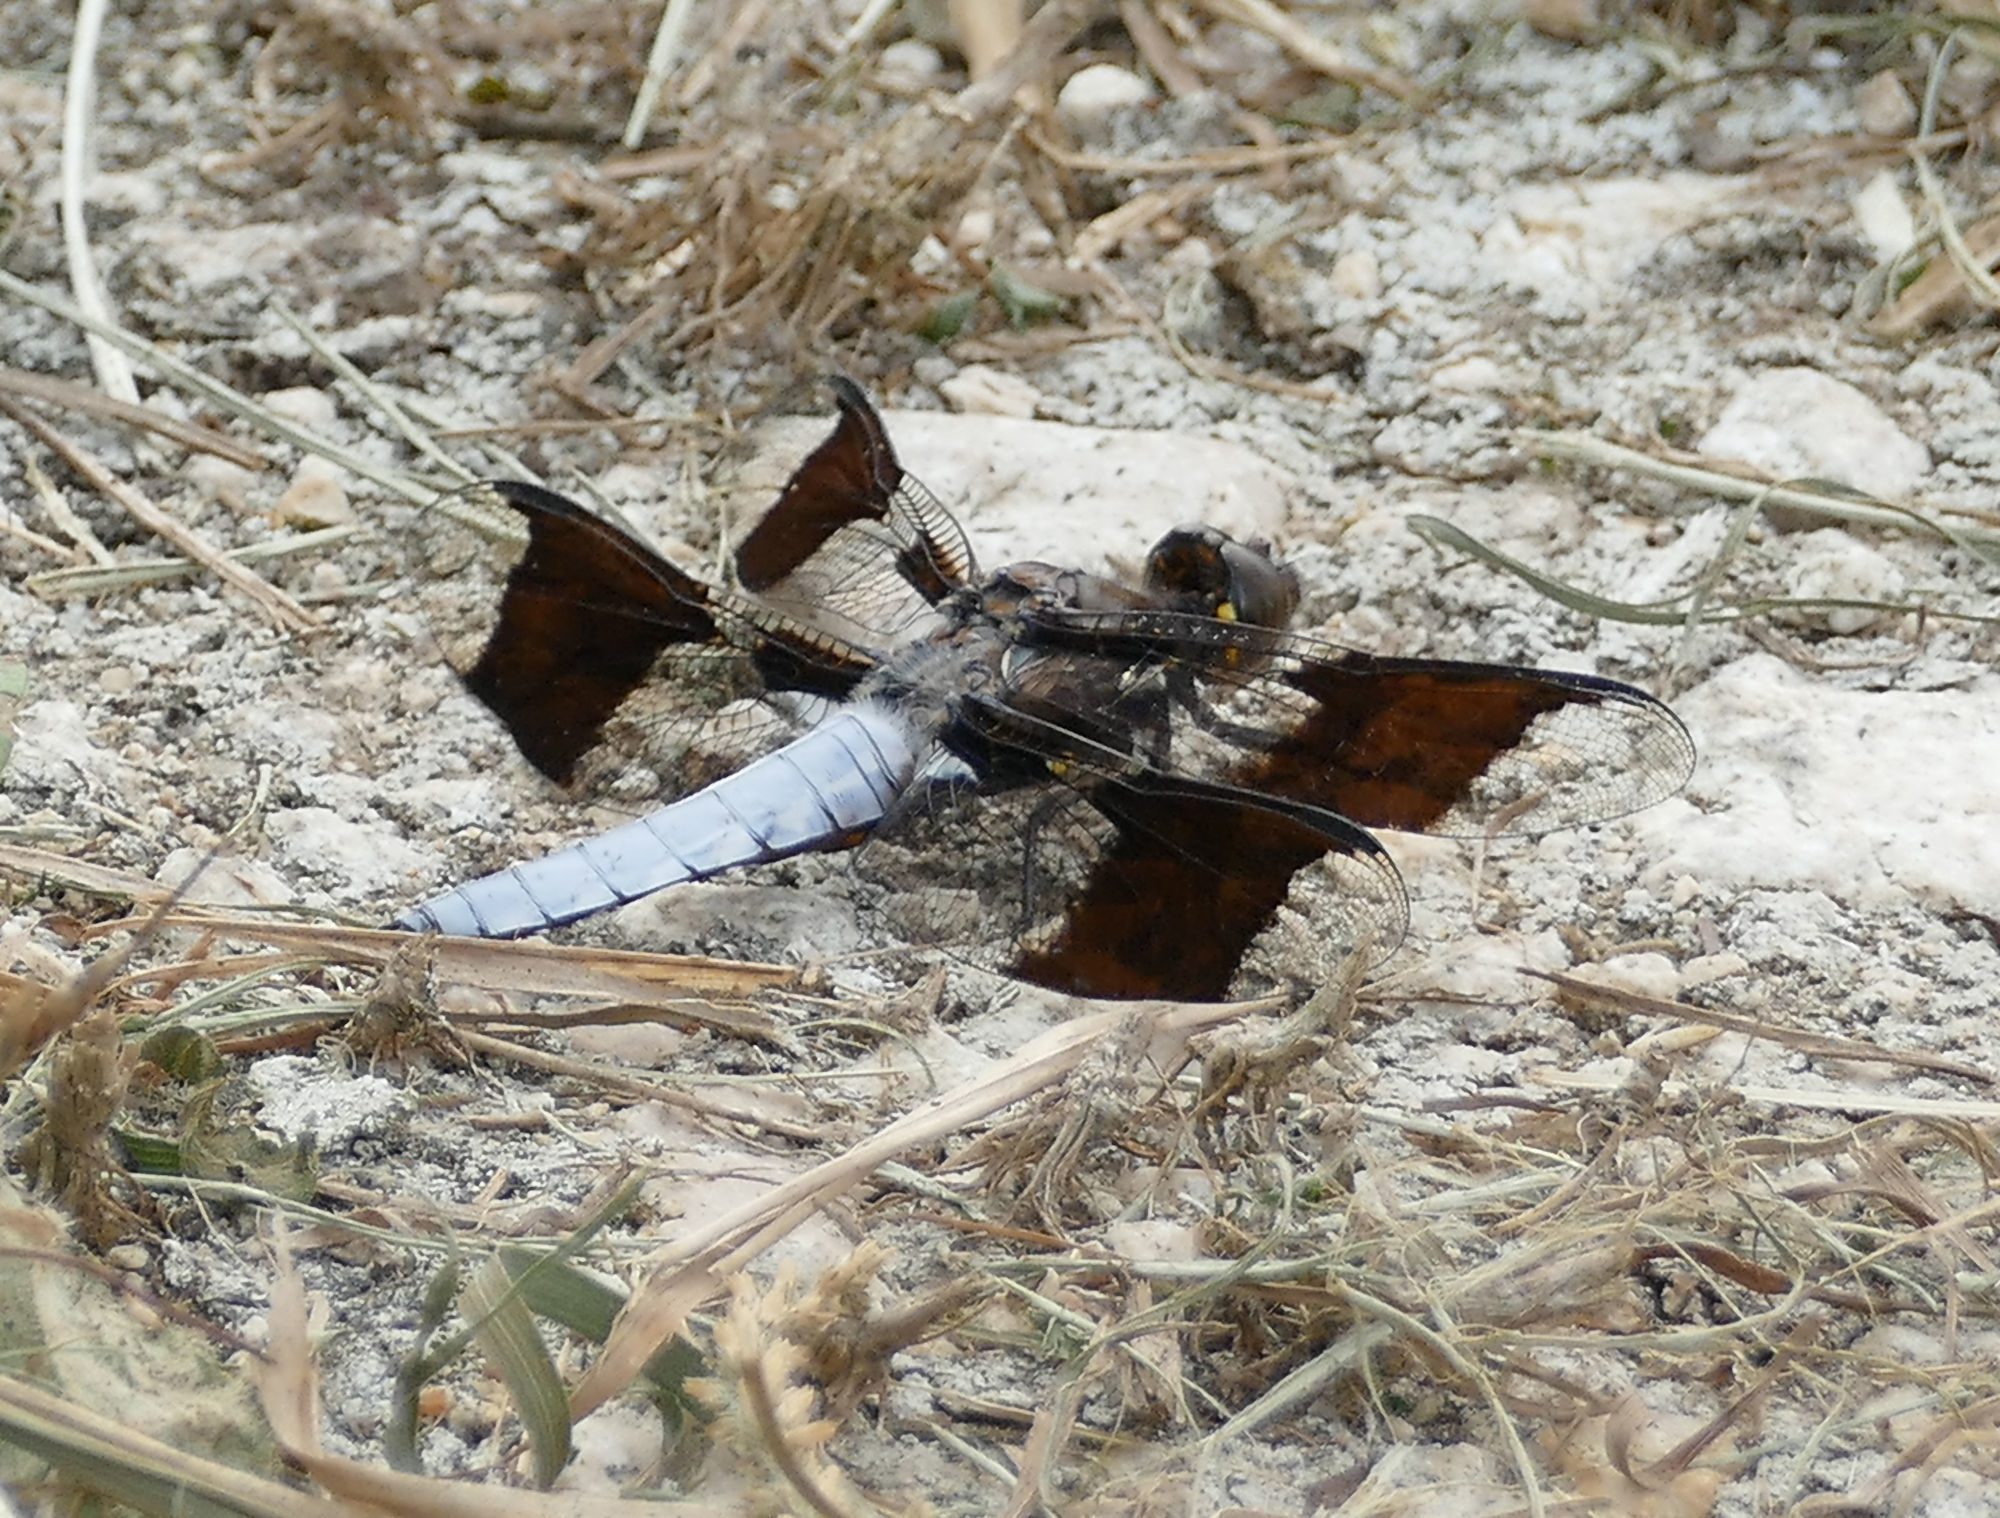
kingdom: Animalia
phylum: Arthropoda
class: Insecta
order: Odonata
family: Libellulidae
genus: Plathemis
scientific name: Plathemis lydia
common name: Common whitetail
